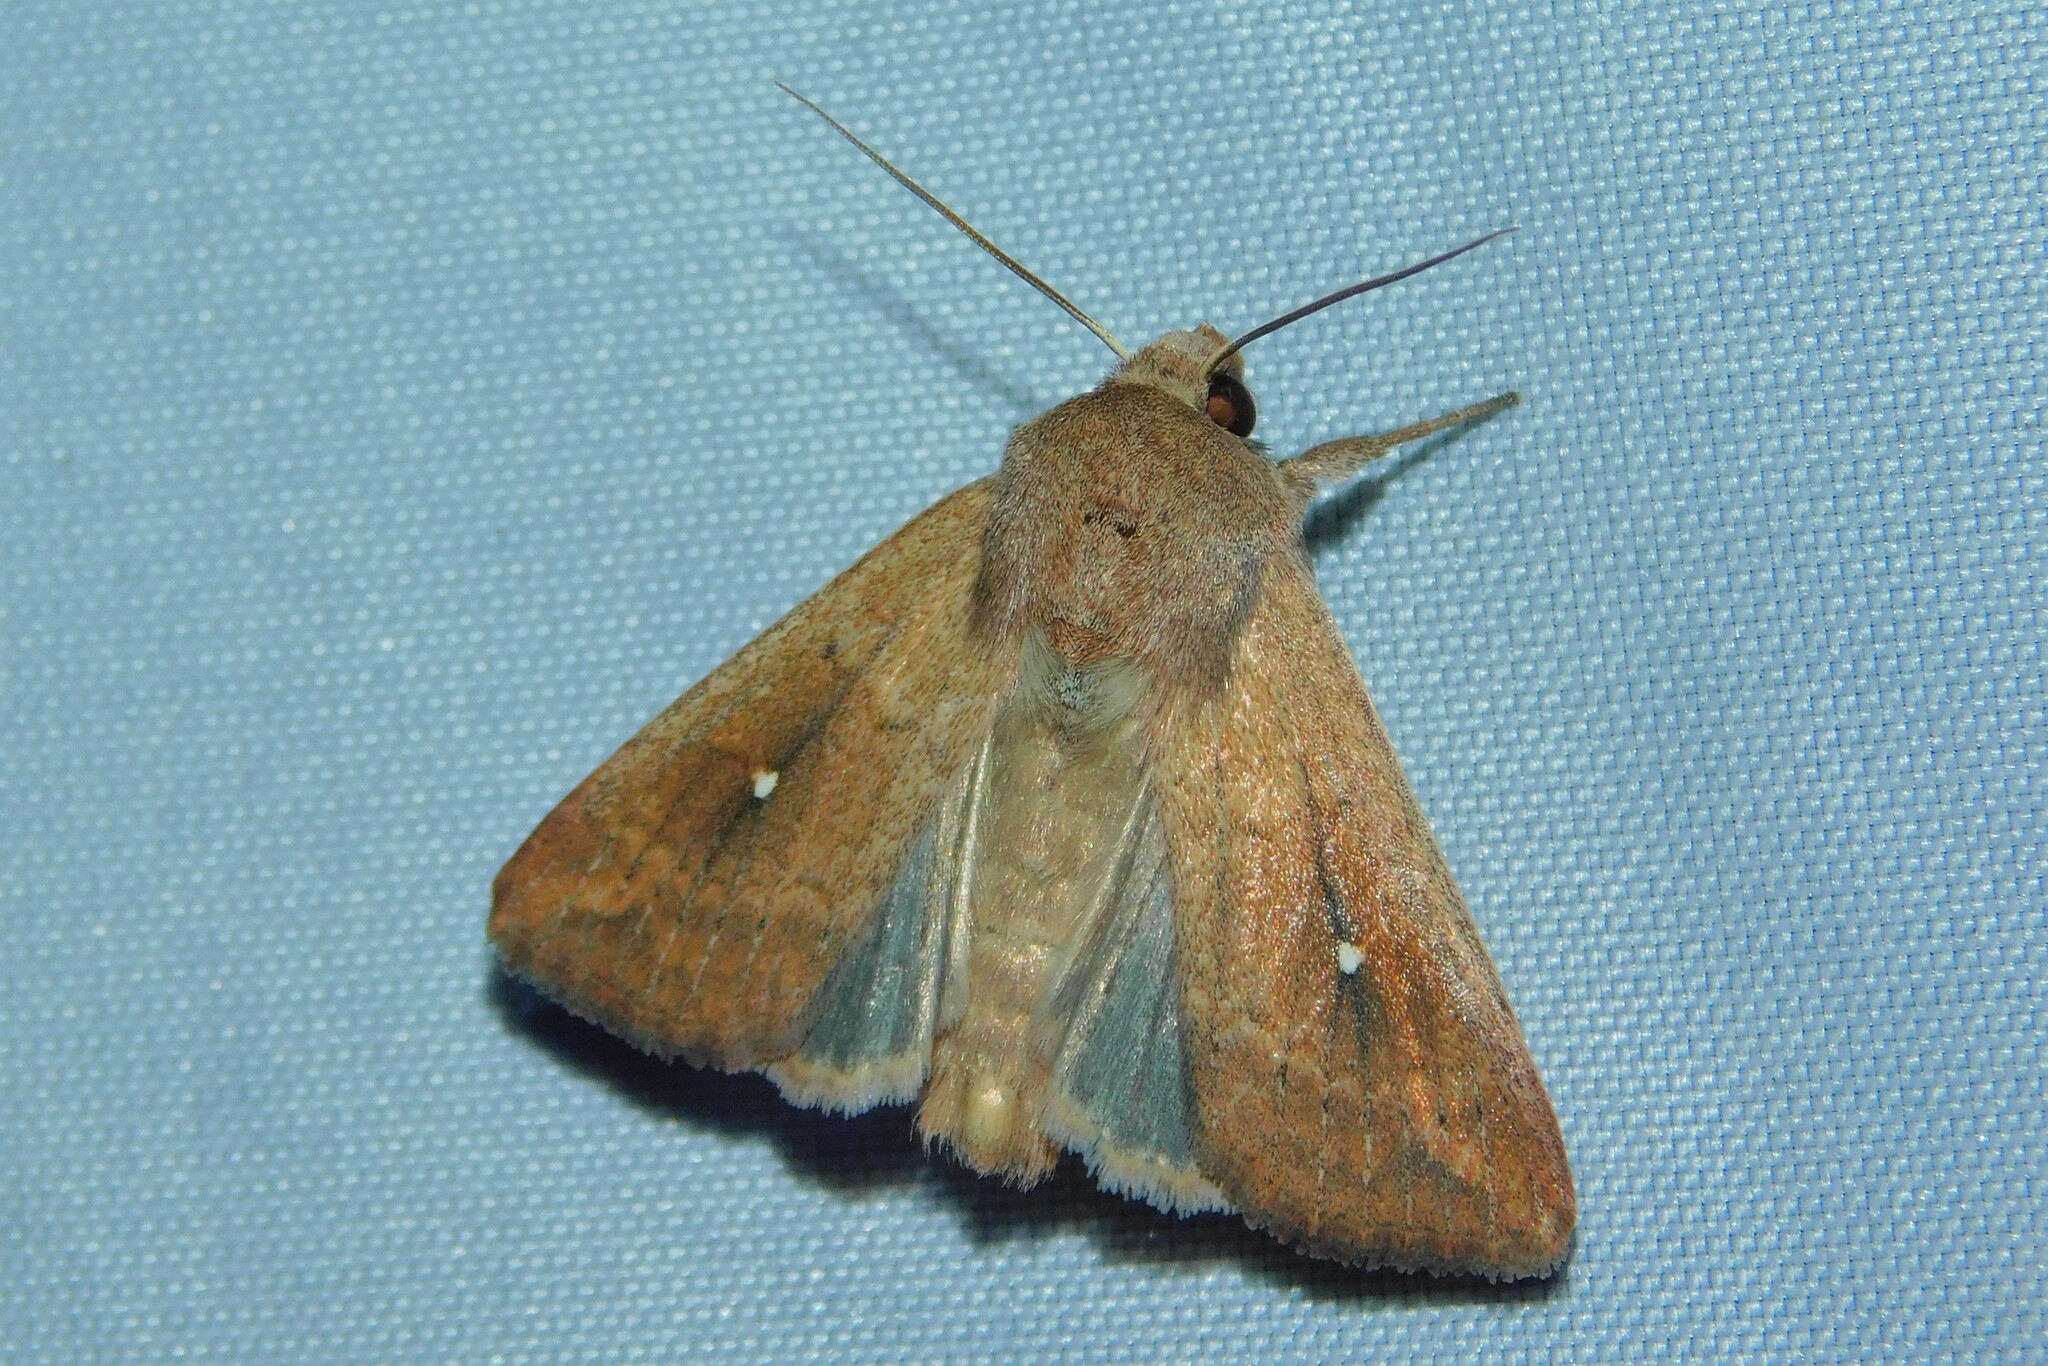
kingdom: Animalia
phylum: Arthropoda
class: Insecta
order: Lepidoptera
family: Noctuidae
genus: Mythimna
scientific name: Mythimna albipuncta
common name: White-point
